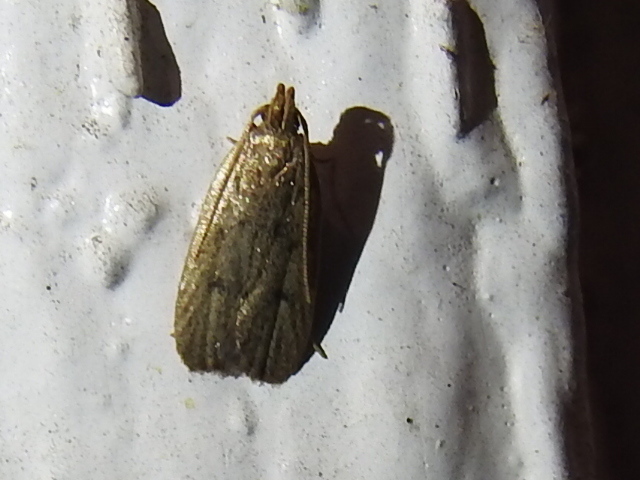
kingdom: Animalia
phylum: Arthropoda
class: Insecta
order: Lepidoptera
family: Autostichidae
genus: Autosticha
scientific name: Autosticha kyotensis
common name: Kyoto moth
